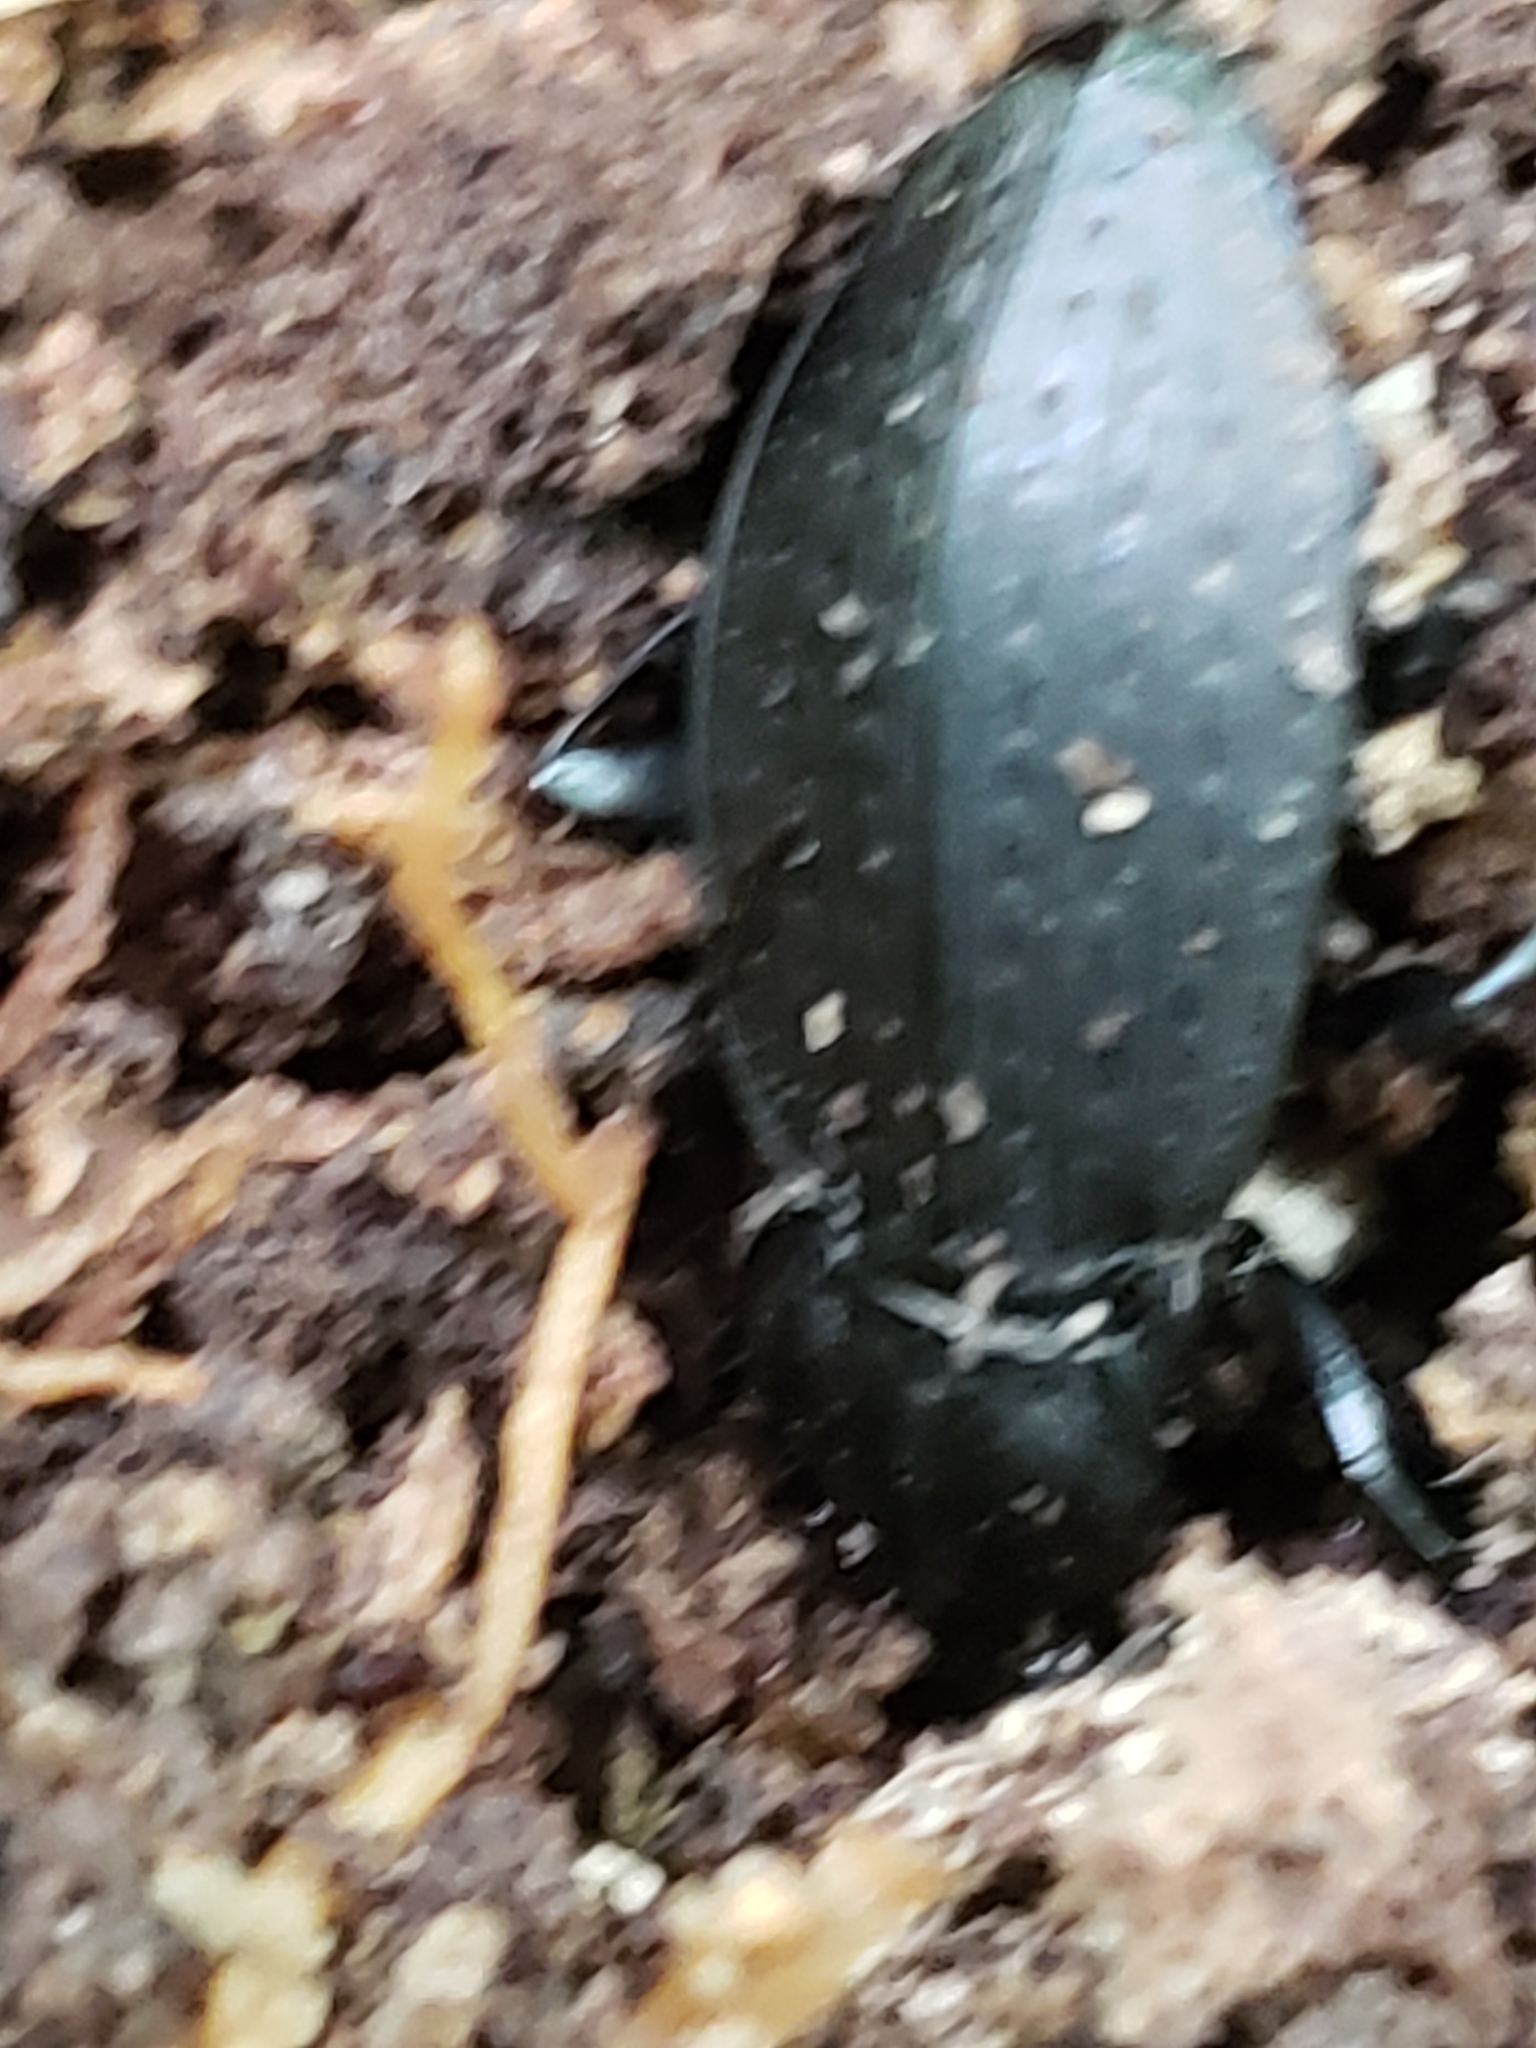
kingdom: Animalia
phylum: Arthropoda
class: Insecta
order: Coleoptera
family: Carabidae
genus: Carabus
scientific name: Carabus vinctus
